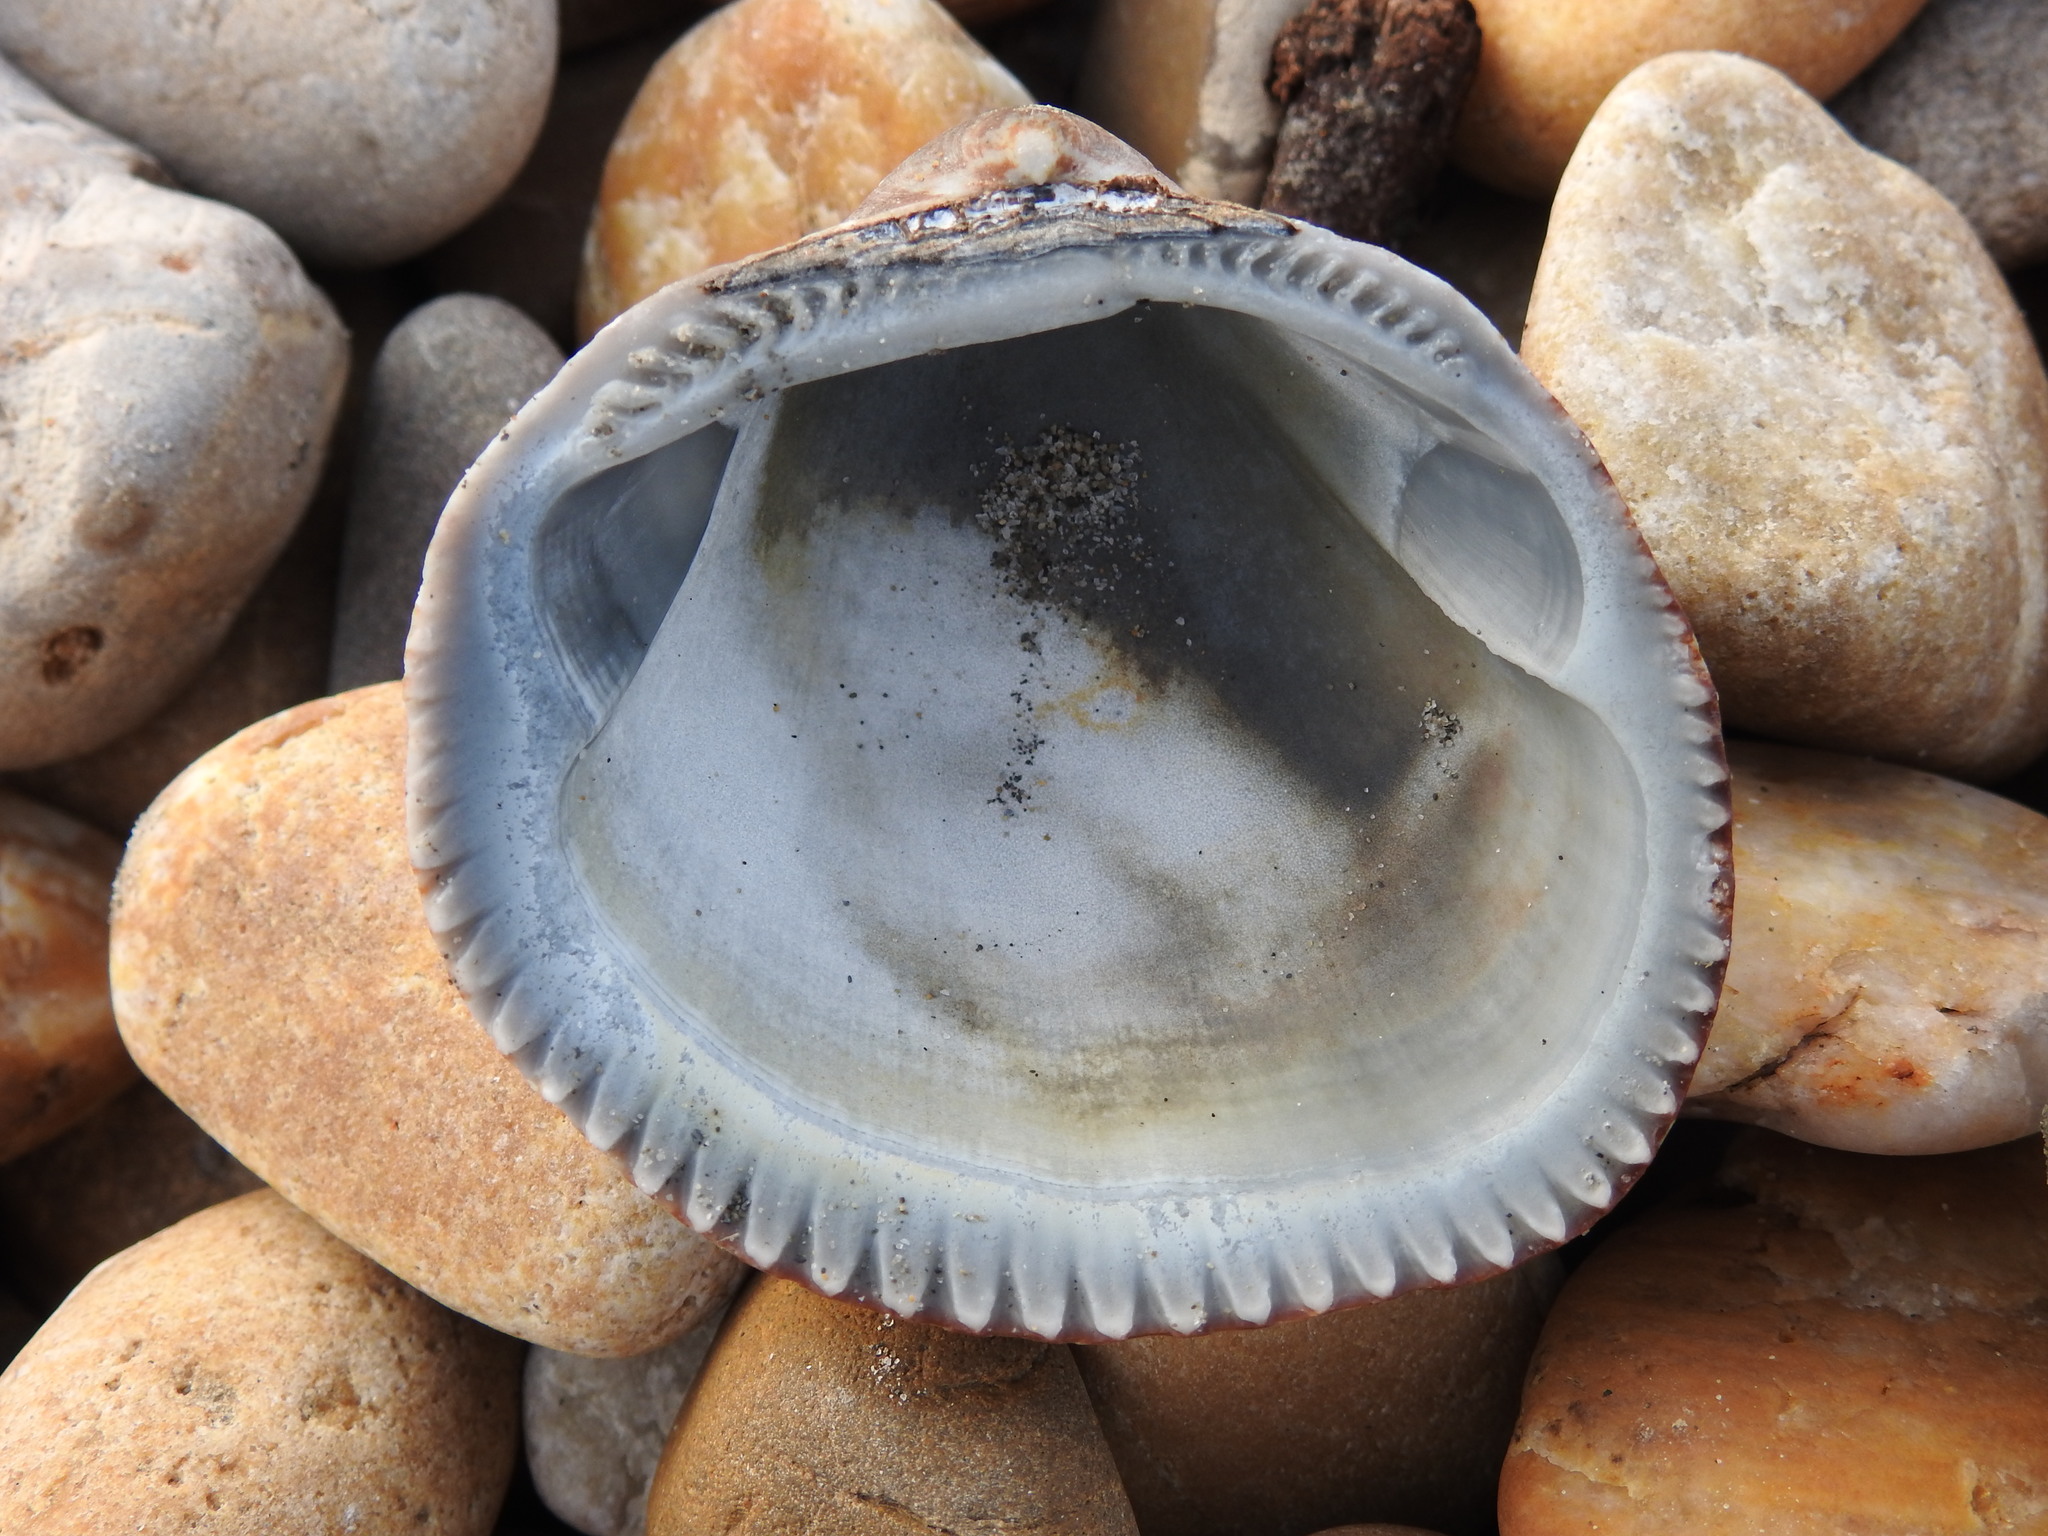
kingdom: Animalia
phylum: Mollusca
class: Bivalvia
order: Arcida
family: Glycymerididae
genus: Glycymeris
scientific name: Glycymeris nummaria
